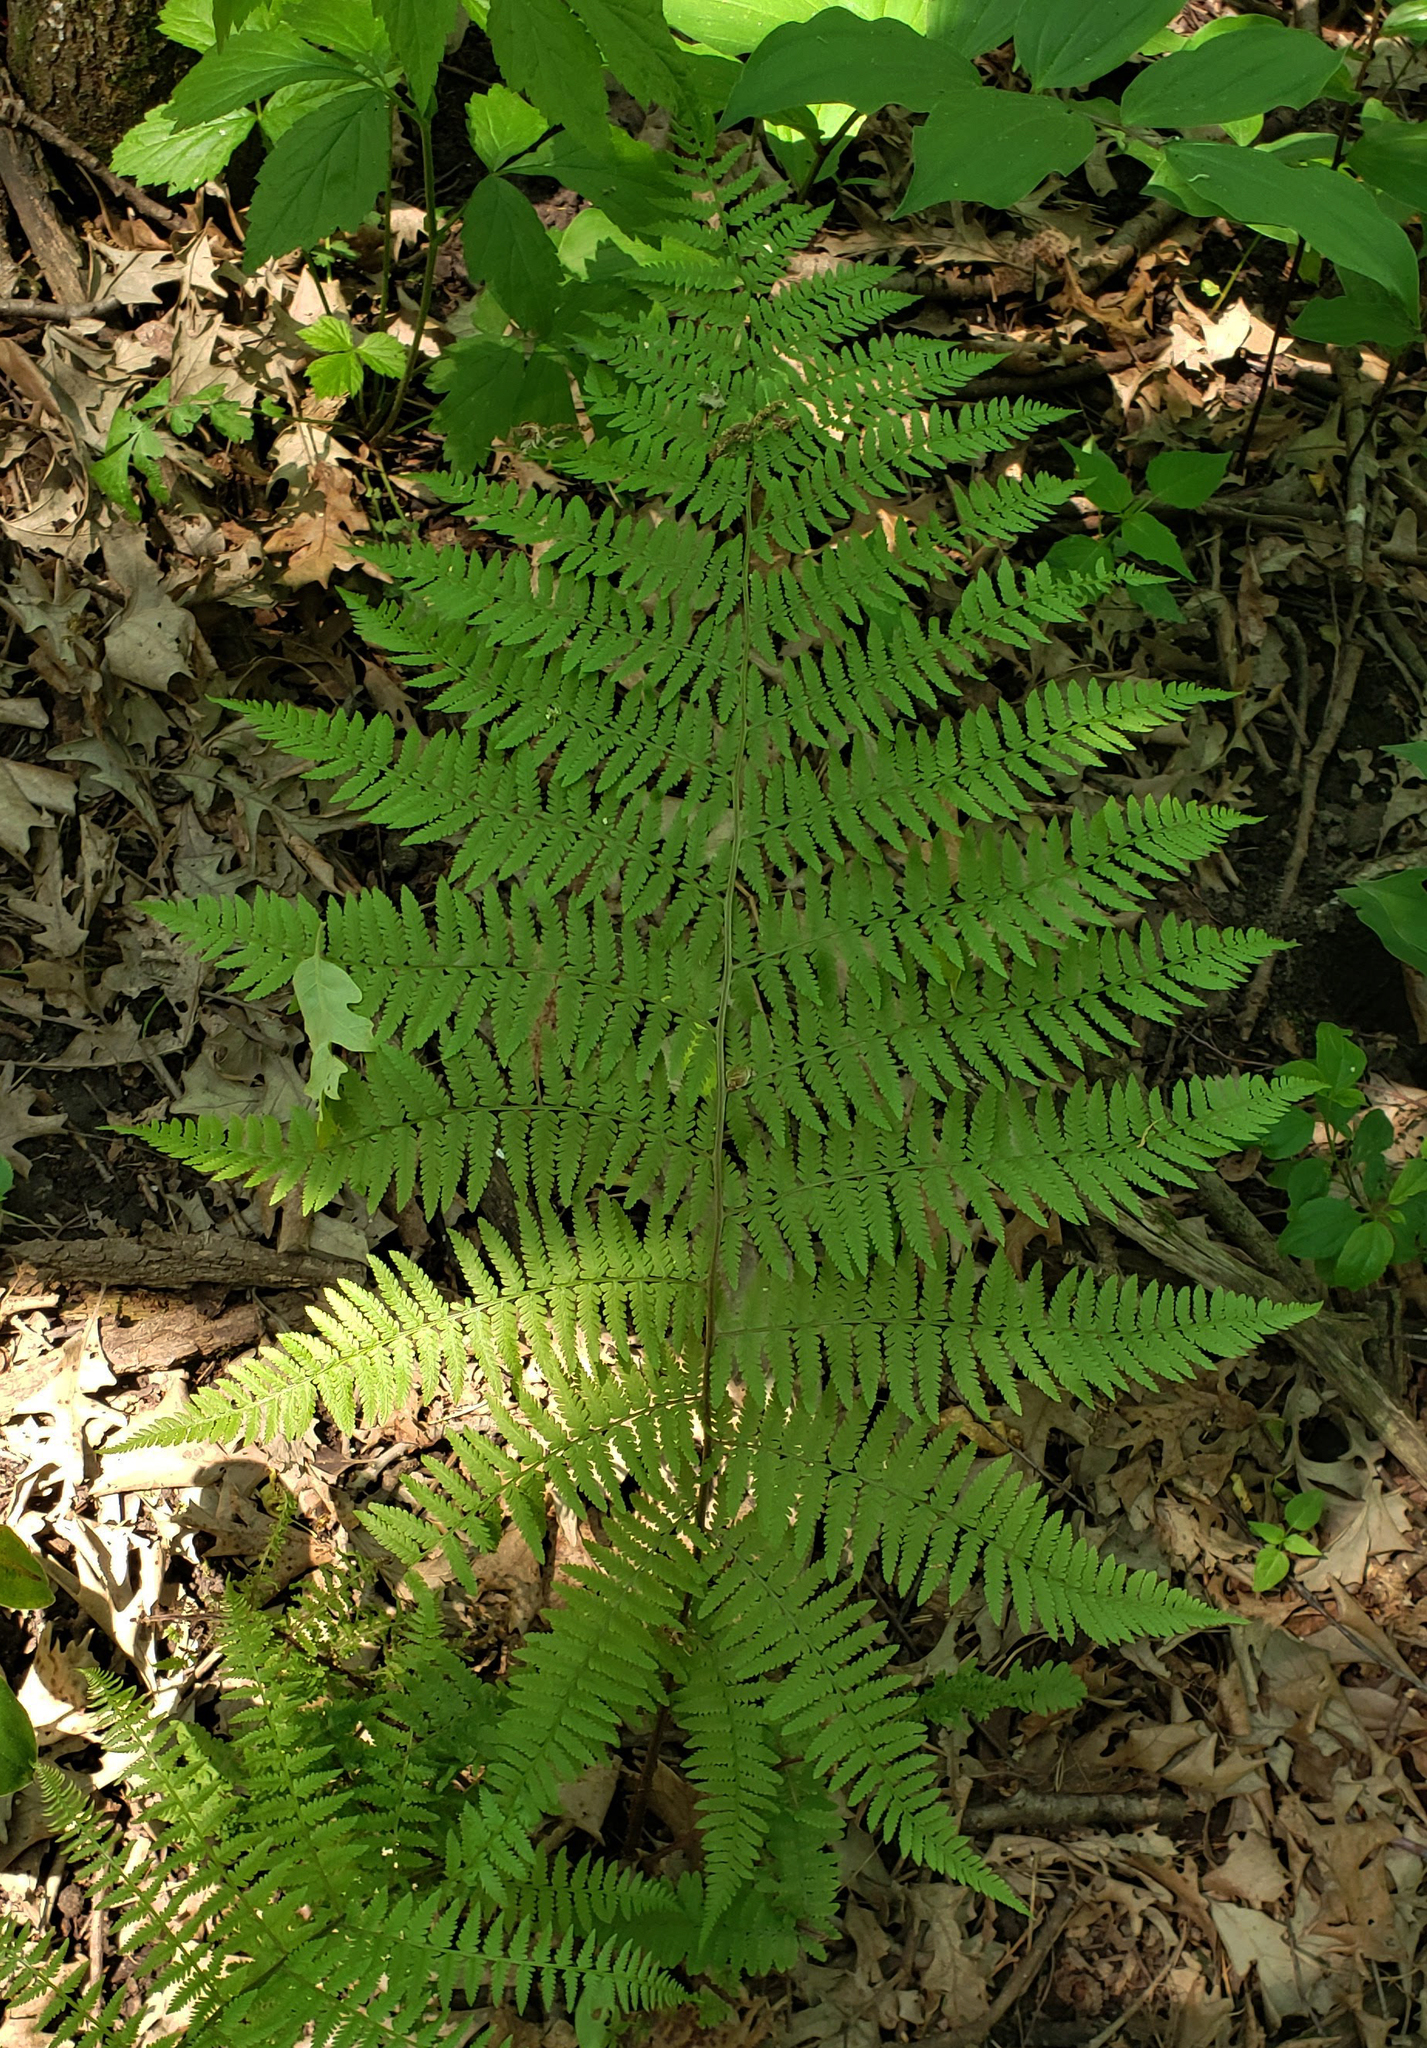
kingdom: Plantae
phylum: Tracheophyta
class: Polypodiopsida
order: Polypodiales
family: Athyriaceae
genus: Athyrium
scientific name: Athyrium angustum
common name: Northern lady fern
